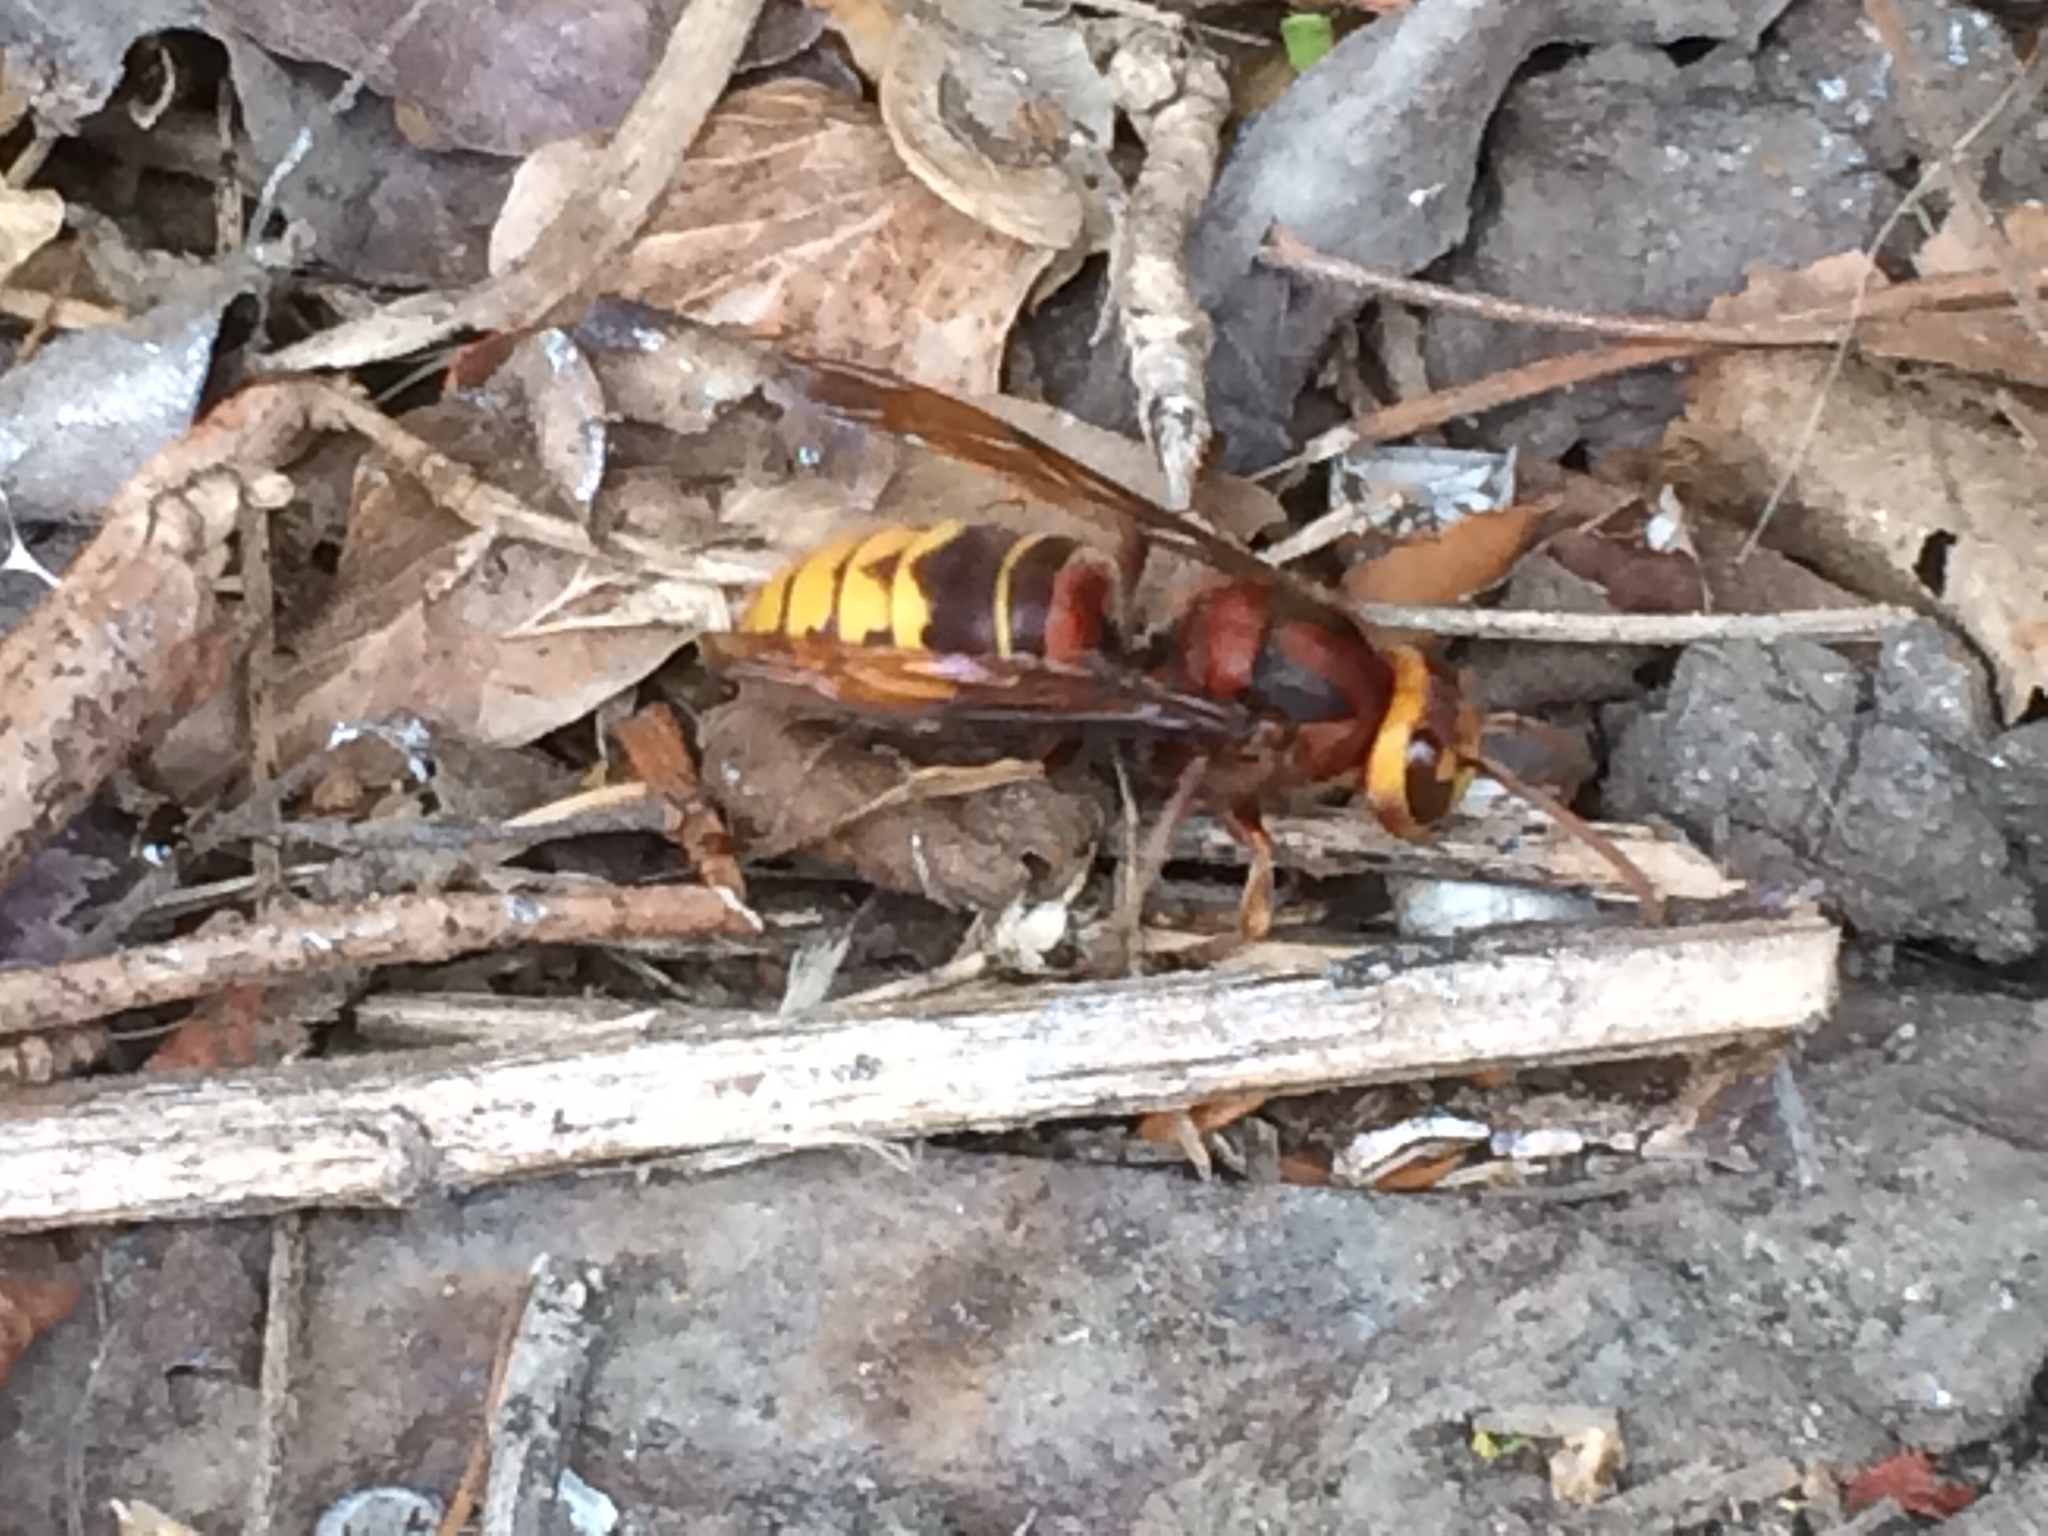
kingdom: Animalia
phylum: Arthropoda
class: Insecta
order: Hymenoptera
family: Vespidae
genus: Vespa
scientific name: Vespa crabro
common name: Hornet
